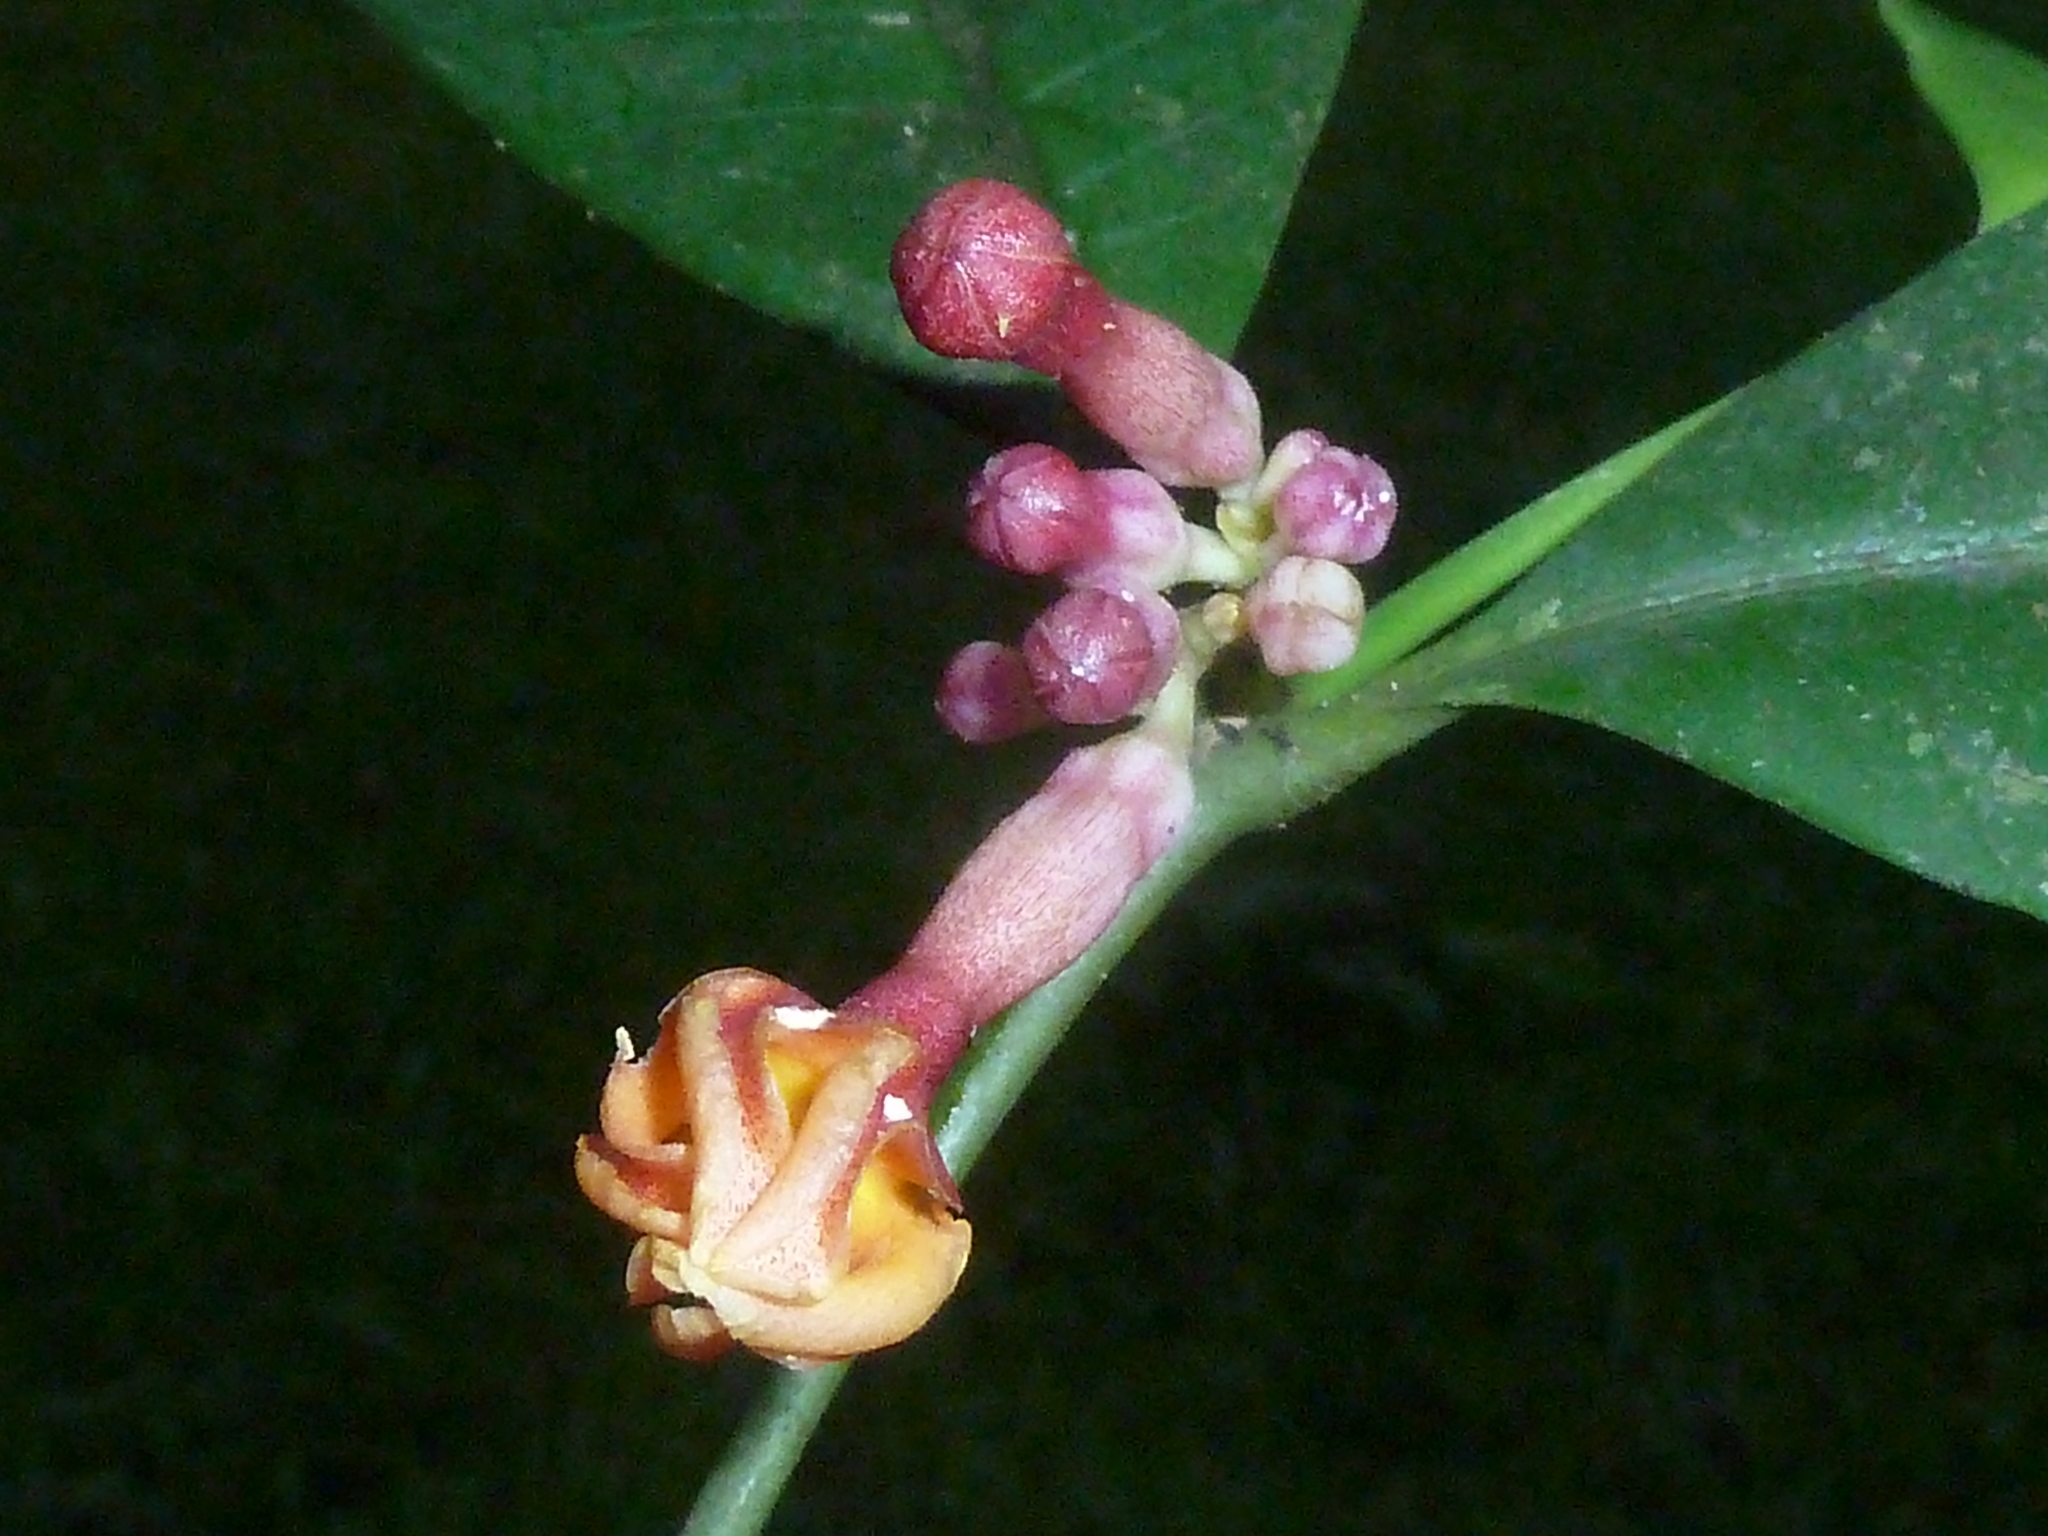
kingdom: Plantae
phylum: Tracheophyta
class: Magnoliopsida
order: Gentianales
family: Apocynaceae
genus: Tabernaemontana
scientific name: Tabernaemontana undulata
